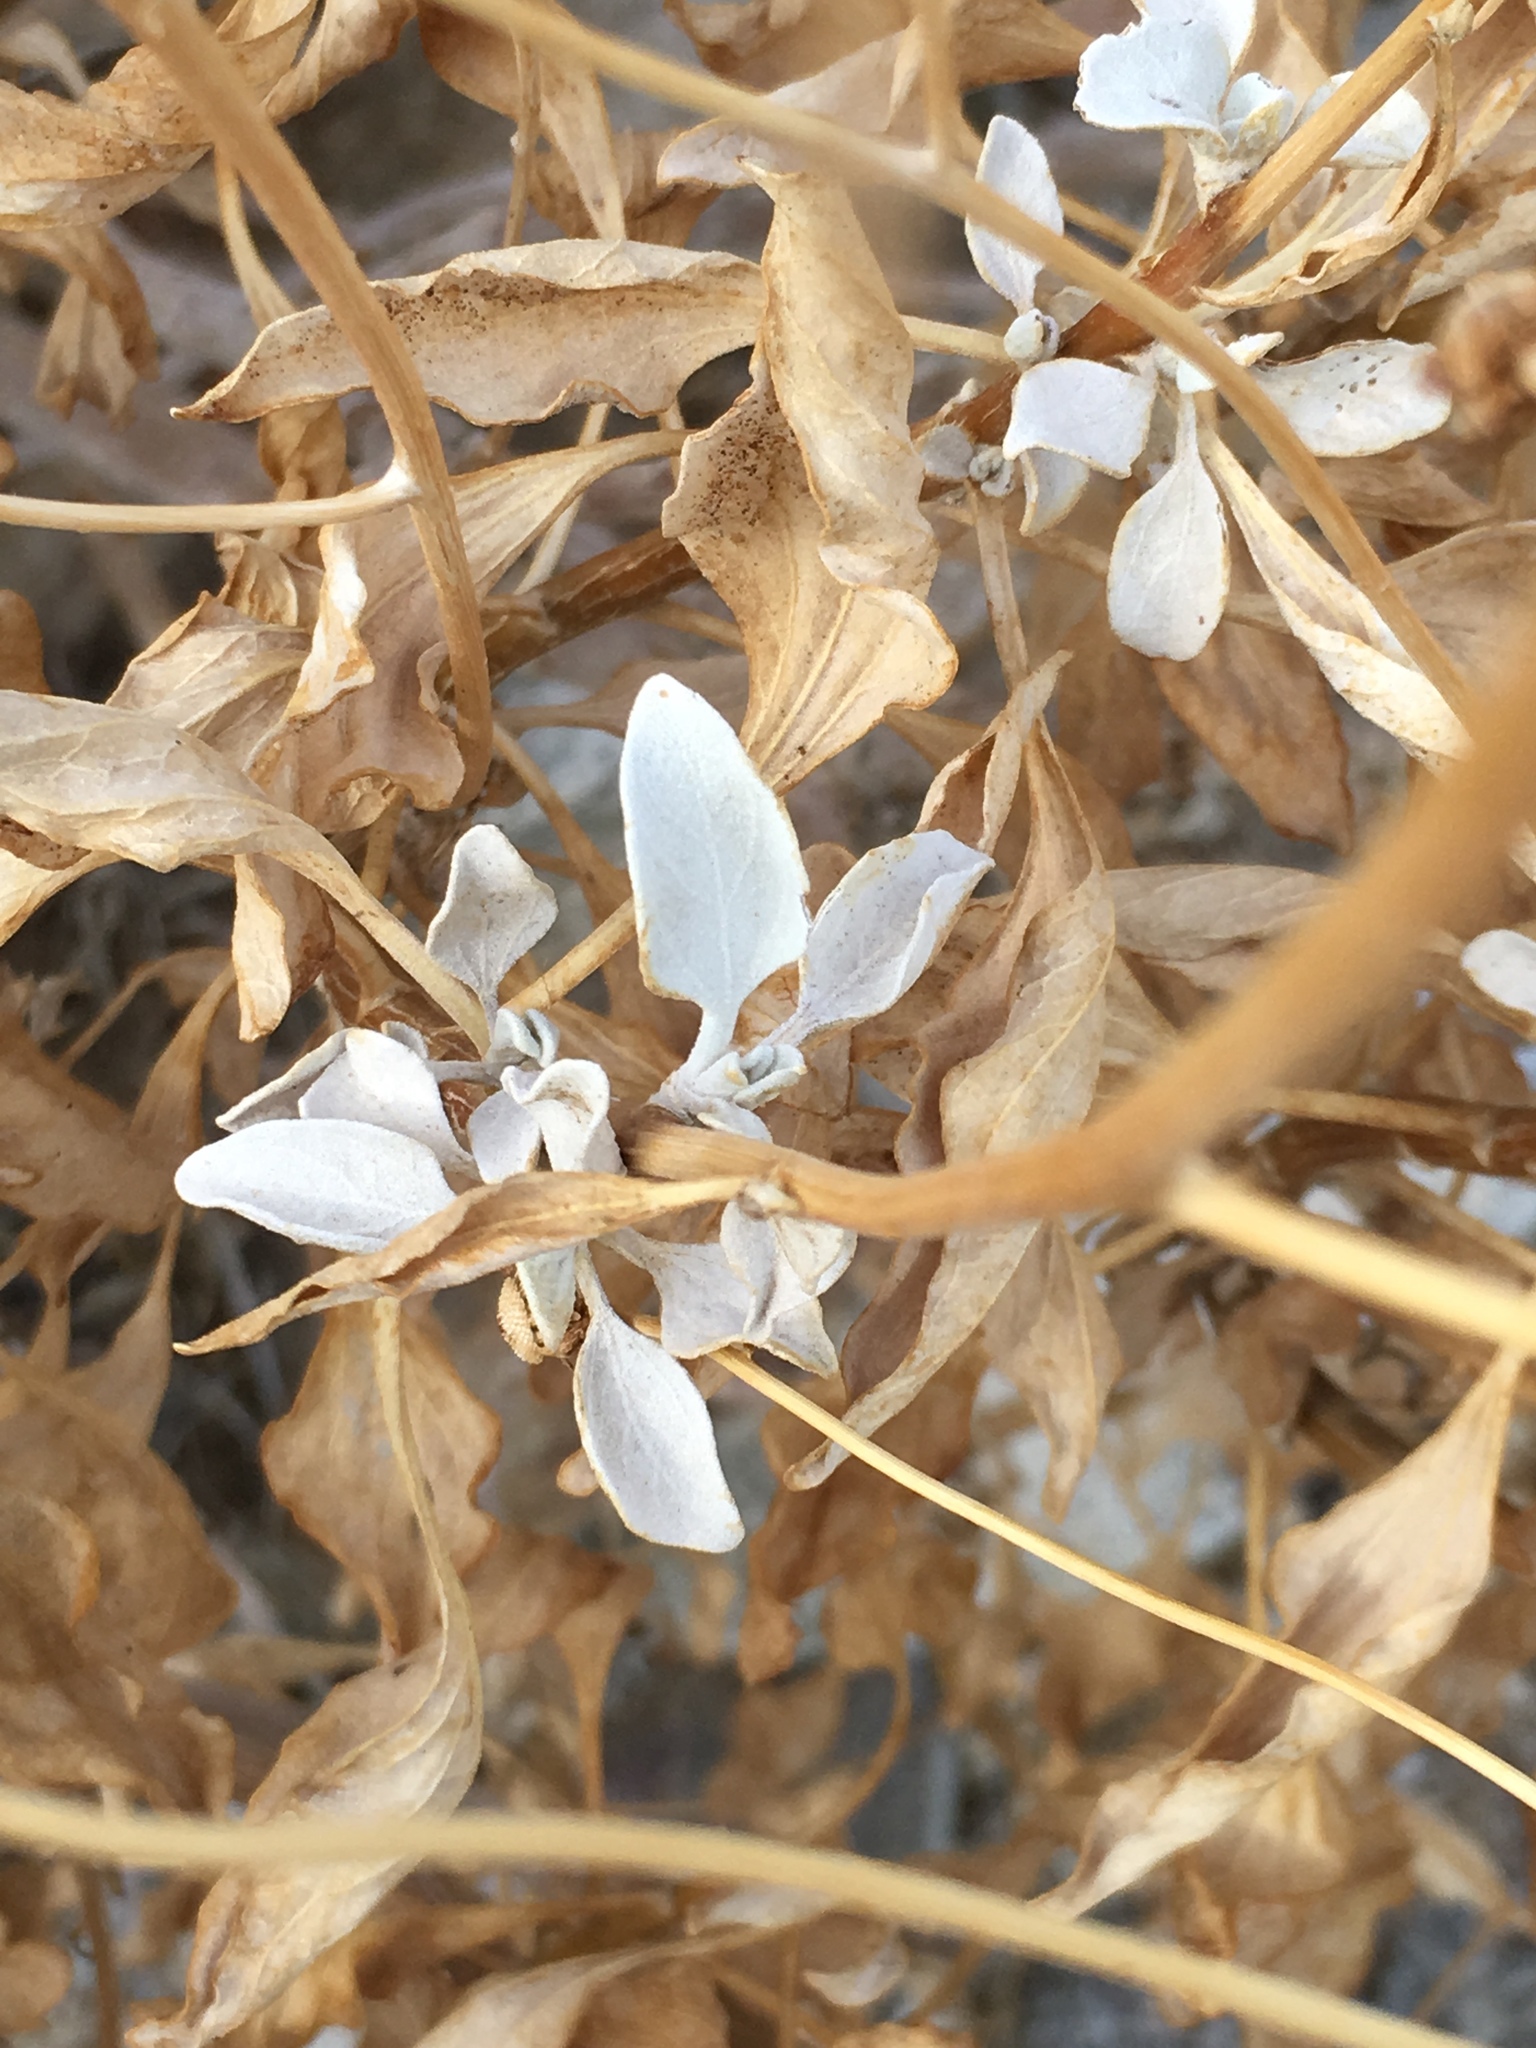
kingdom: Plantae
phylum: Tracheophyta
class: Magnoliopsida
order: Asterales
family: Asteraceae
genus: Encelia
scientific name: Encelia farinosa
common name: Brittlebush
